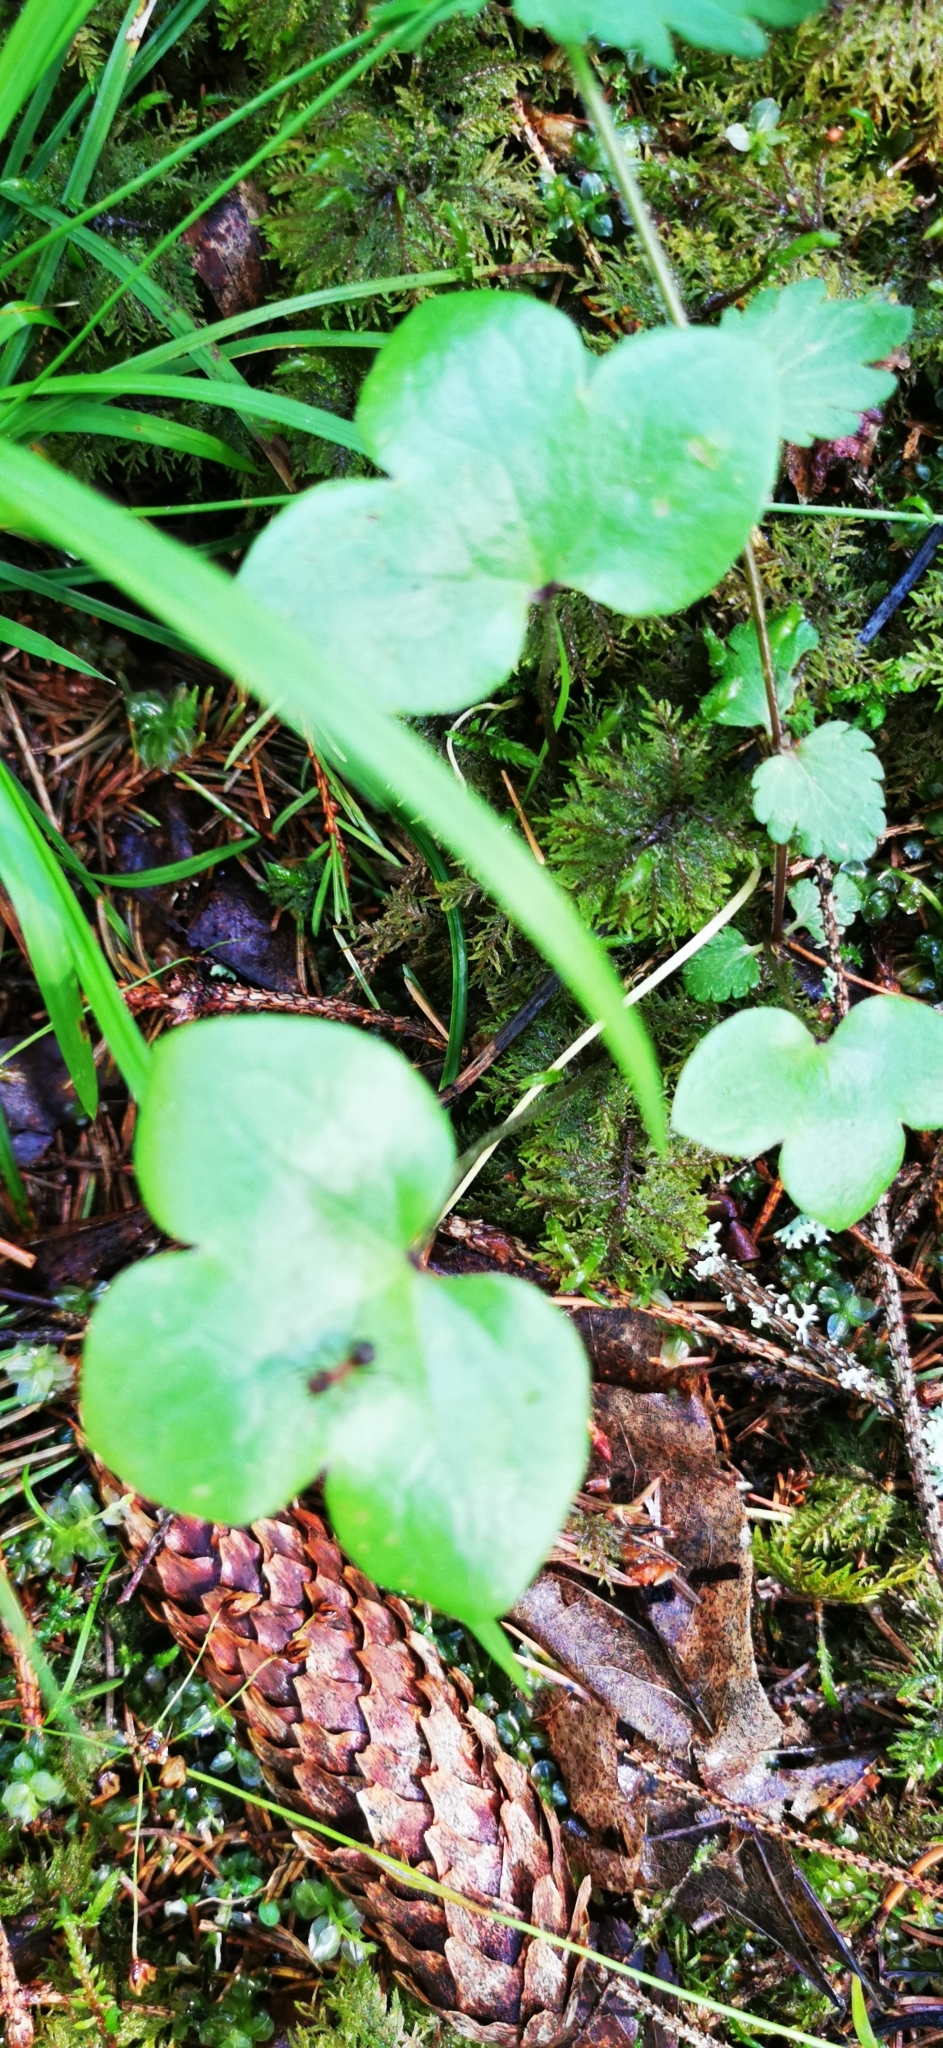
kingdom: Plantae
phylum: Tracheophyta
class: Magnoliopsida
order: Ranunculales
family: Ranunculaceae
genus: Hepatica
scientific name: Hepatica nobilis
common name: Liverleaf
